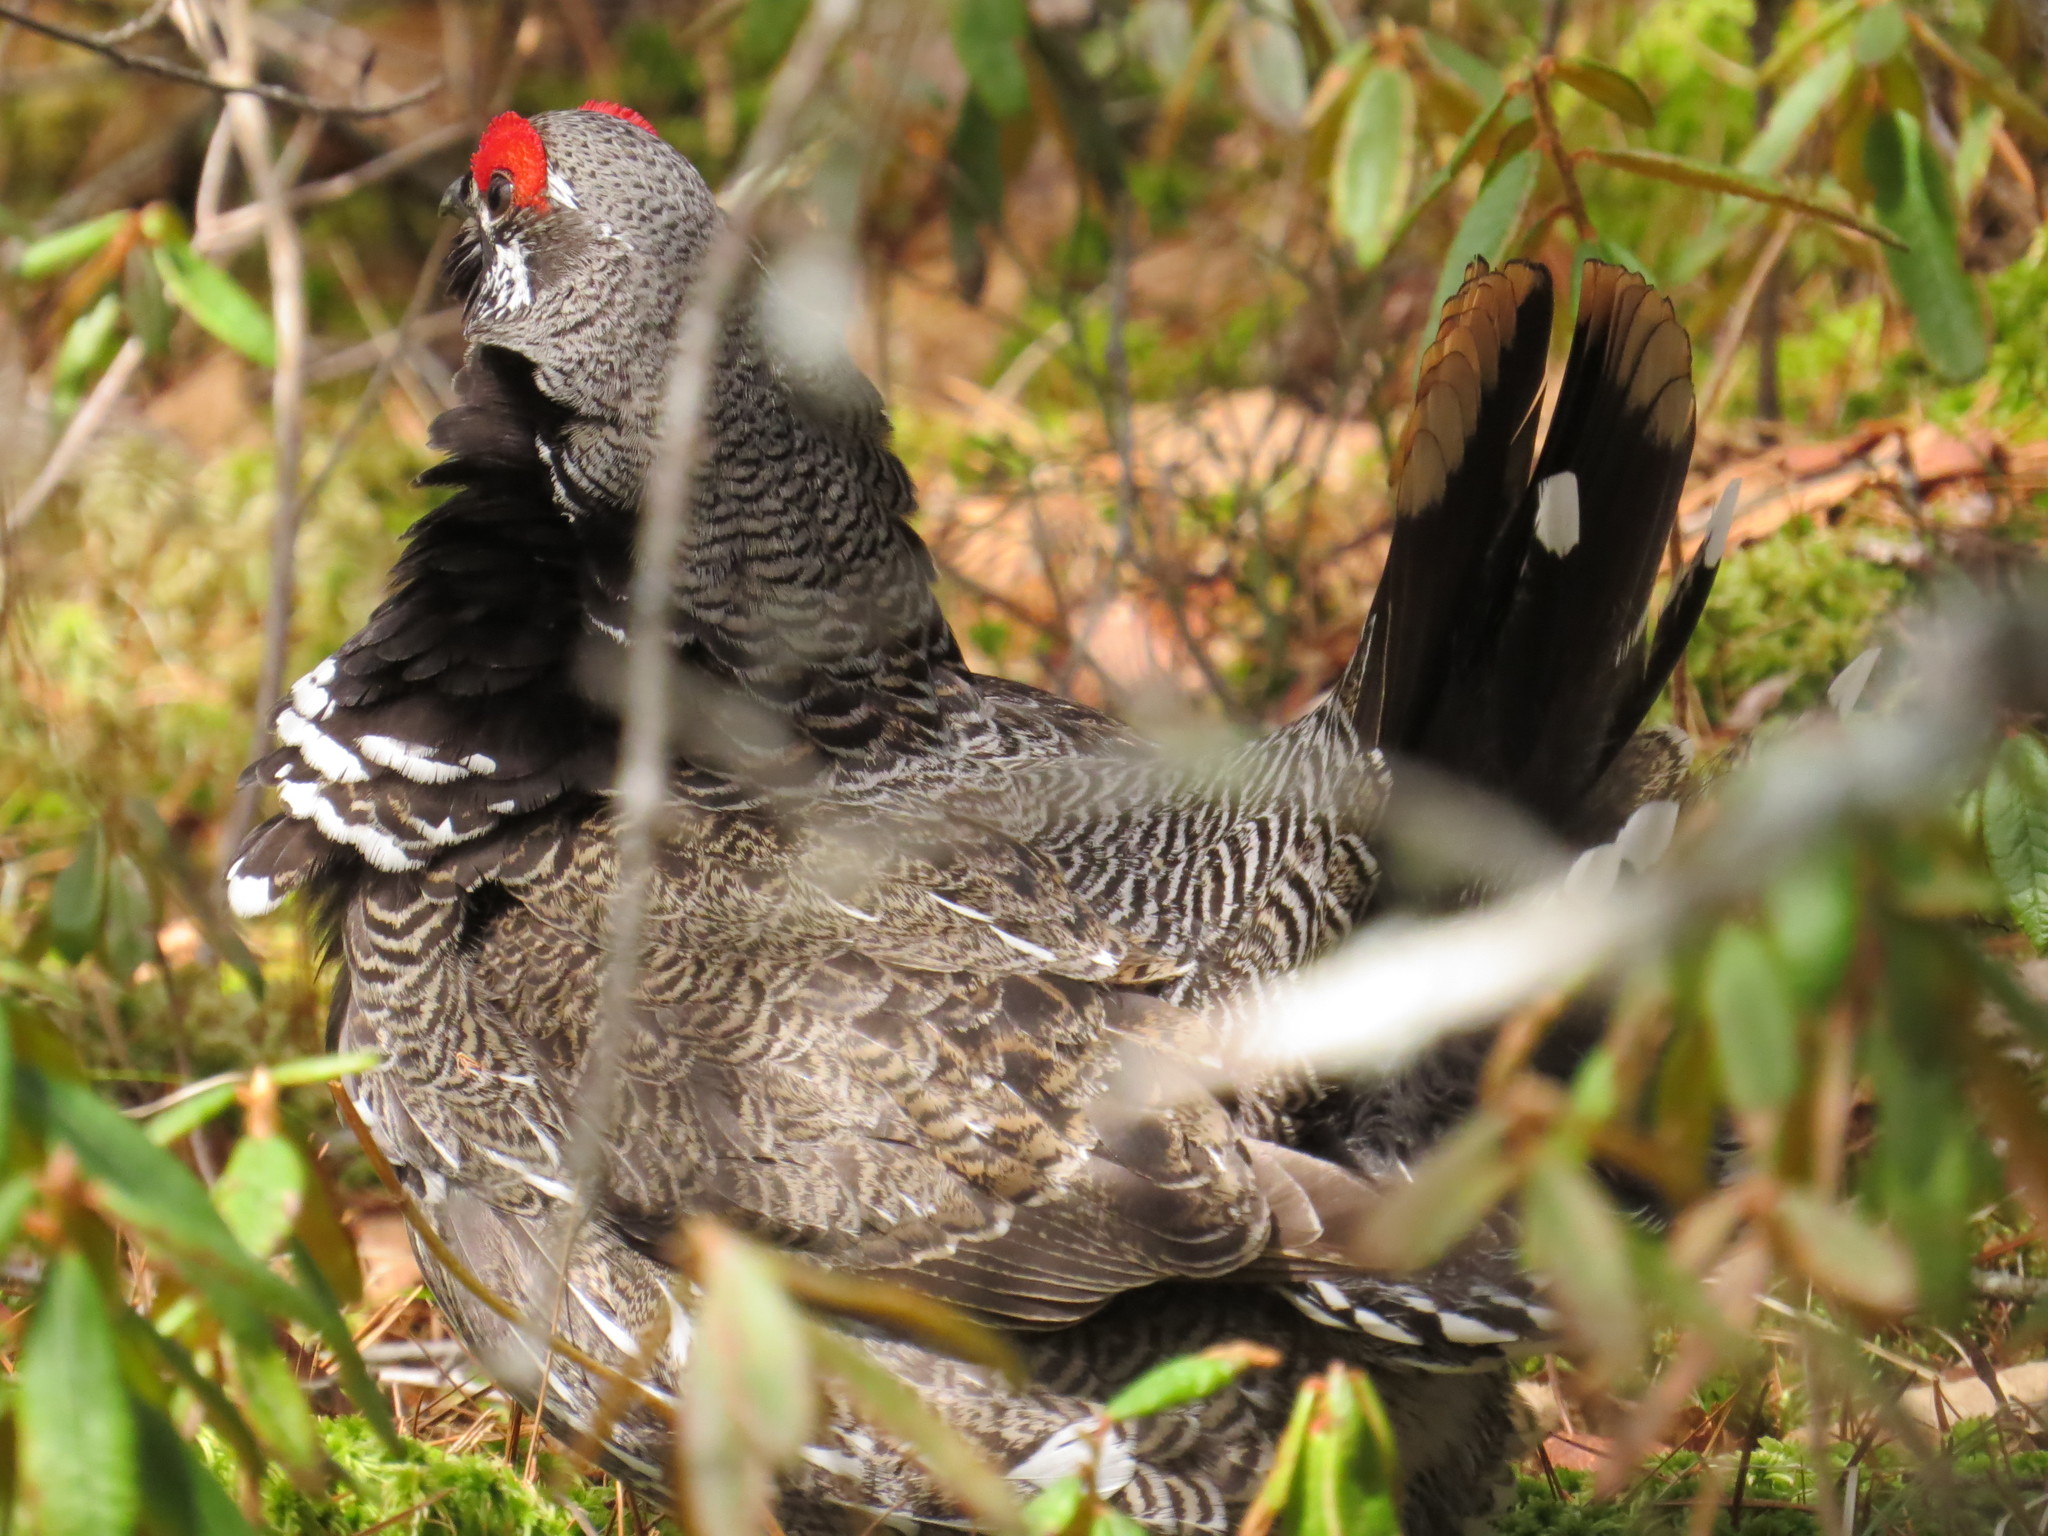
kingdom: Animalia
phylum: Chordata
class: Aves
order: Galliformes
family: Phasianidae
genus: Canachites
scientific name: Canachites canadensis
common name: Spruce grouse
